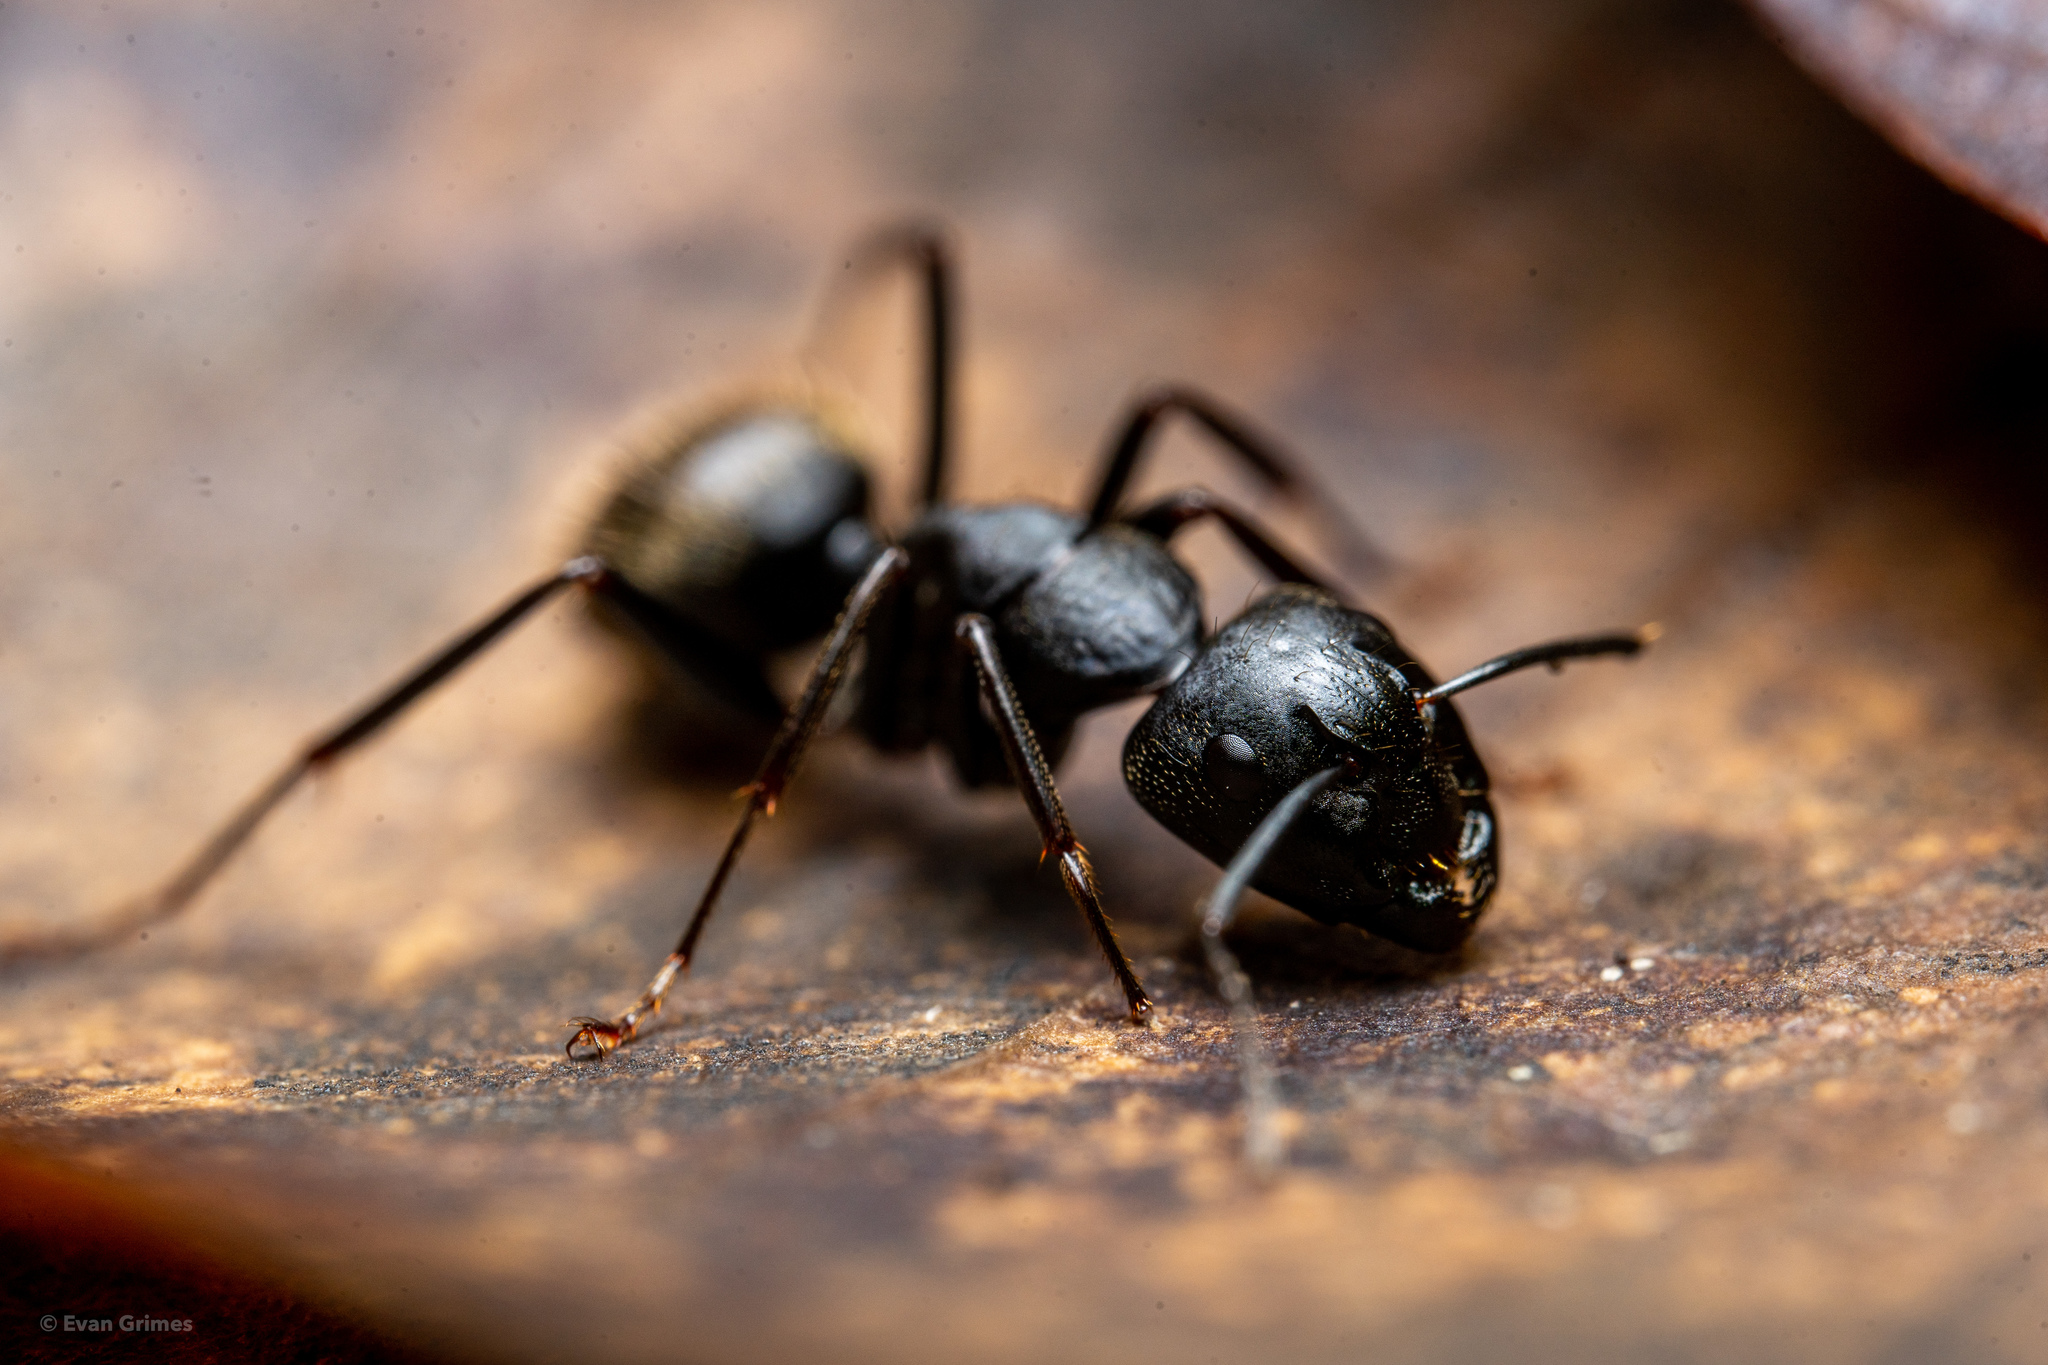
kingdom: Animalia
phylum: Arthropoda
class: Insecta
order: Hymenoptera
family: Formicidae
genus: Camponotus
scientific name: Camponotus pennsylvanicus
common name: Black carpenter ant
